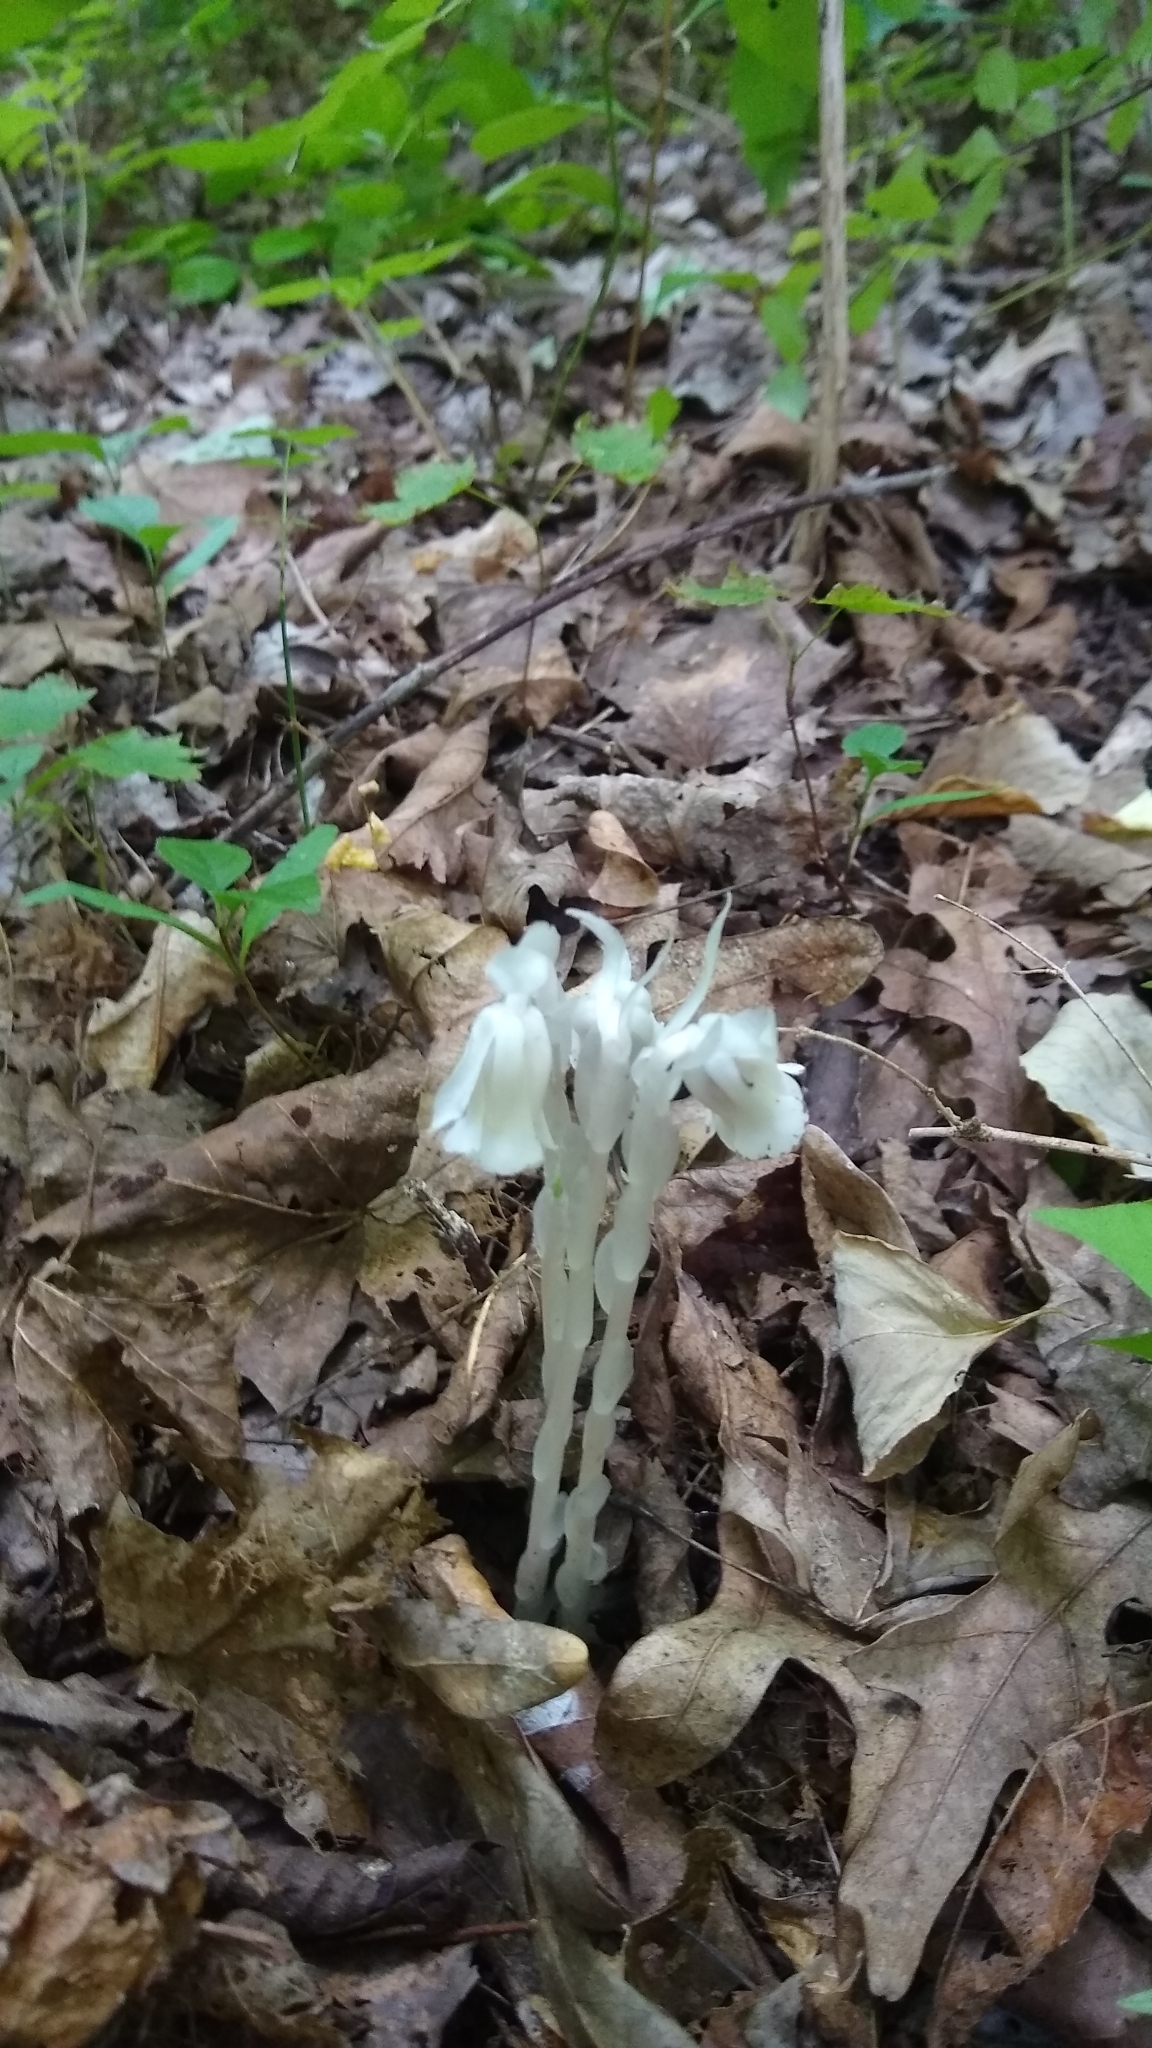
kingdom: Plantae
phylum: Tracheophyta
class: Magnoliopsida
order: Ericales
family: Ericaceae
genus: Monotropa
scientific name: Monotropa uniflora
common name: Convulsion root
